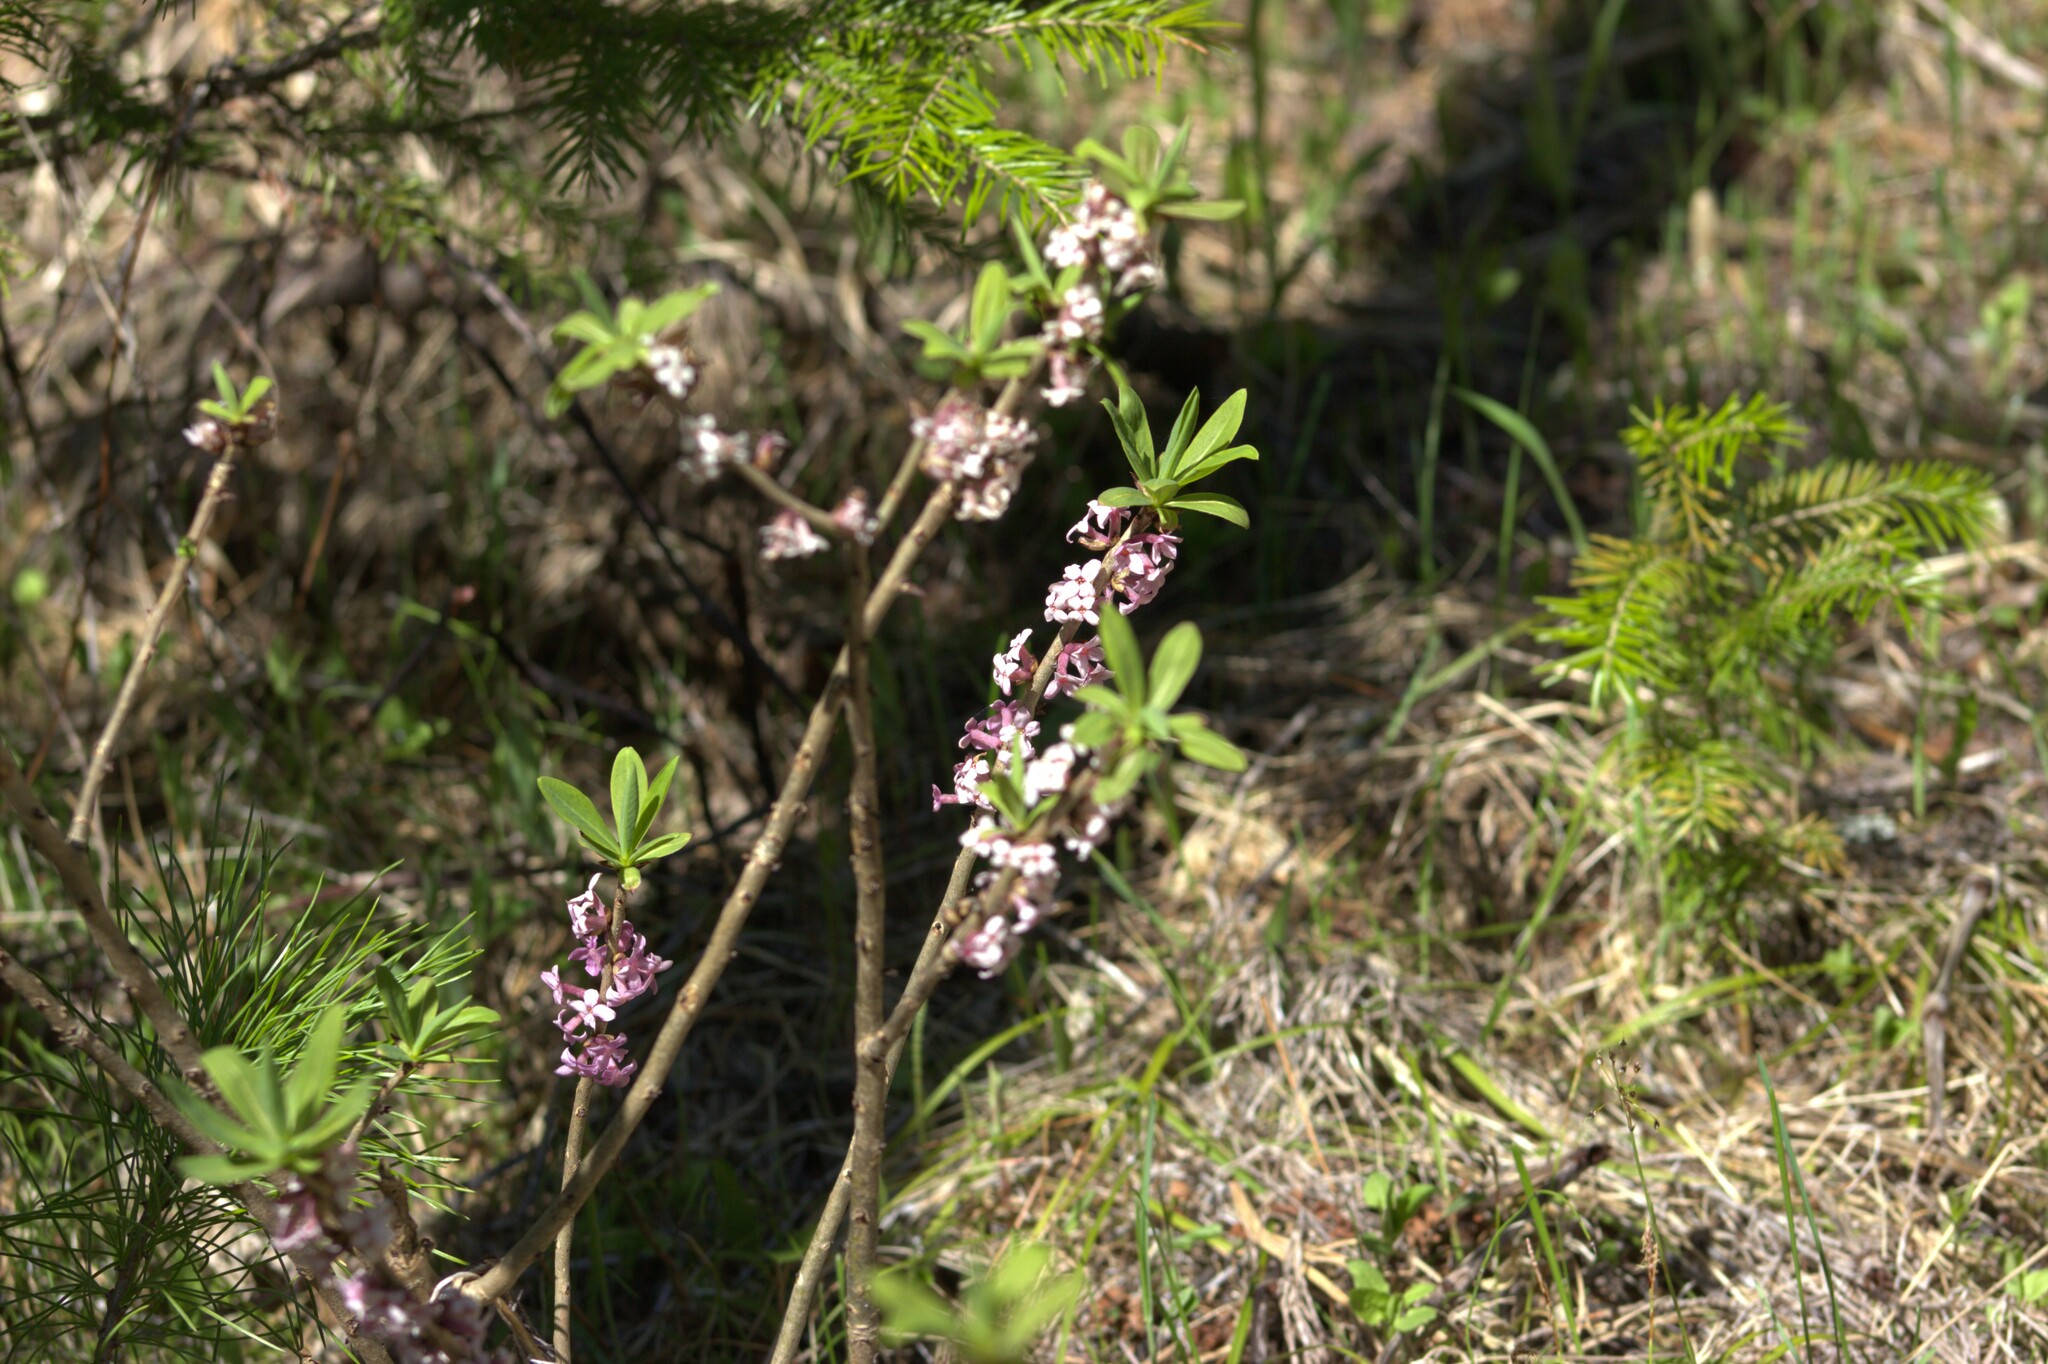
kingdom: Plantae
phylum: Tracheophyta
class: Magnoliopsida
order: Malvales
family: Thymelaeaceae
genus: Daphne
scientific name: Daphne mezereum
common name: Mezereon
